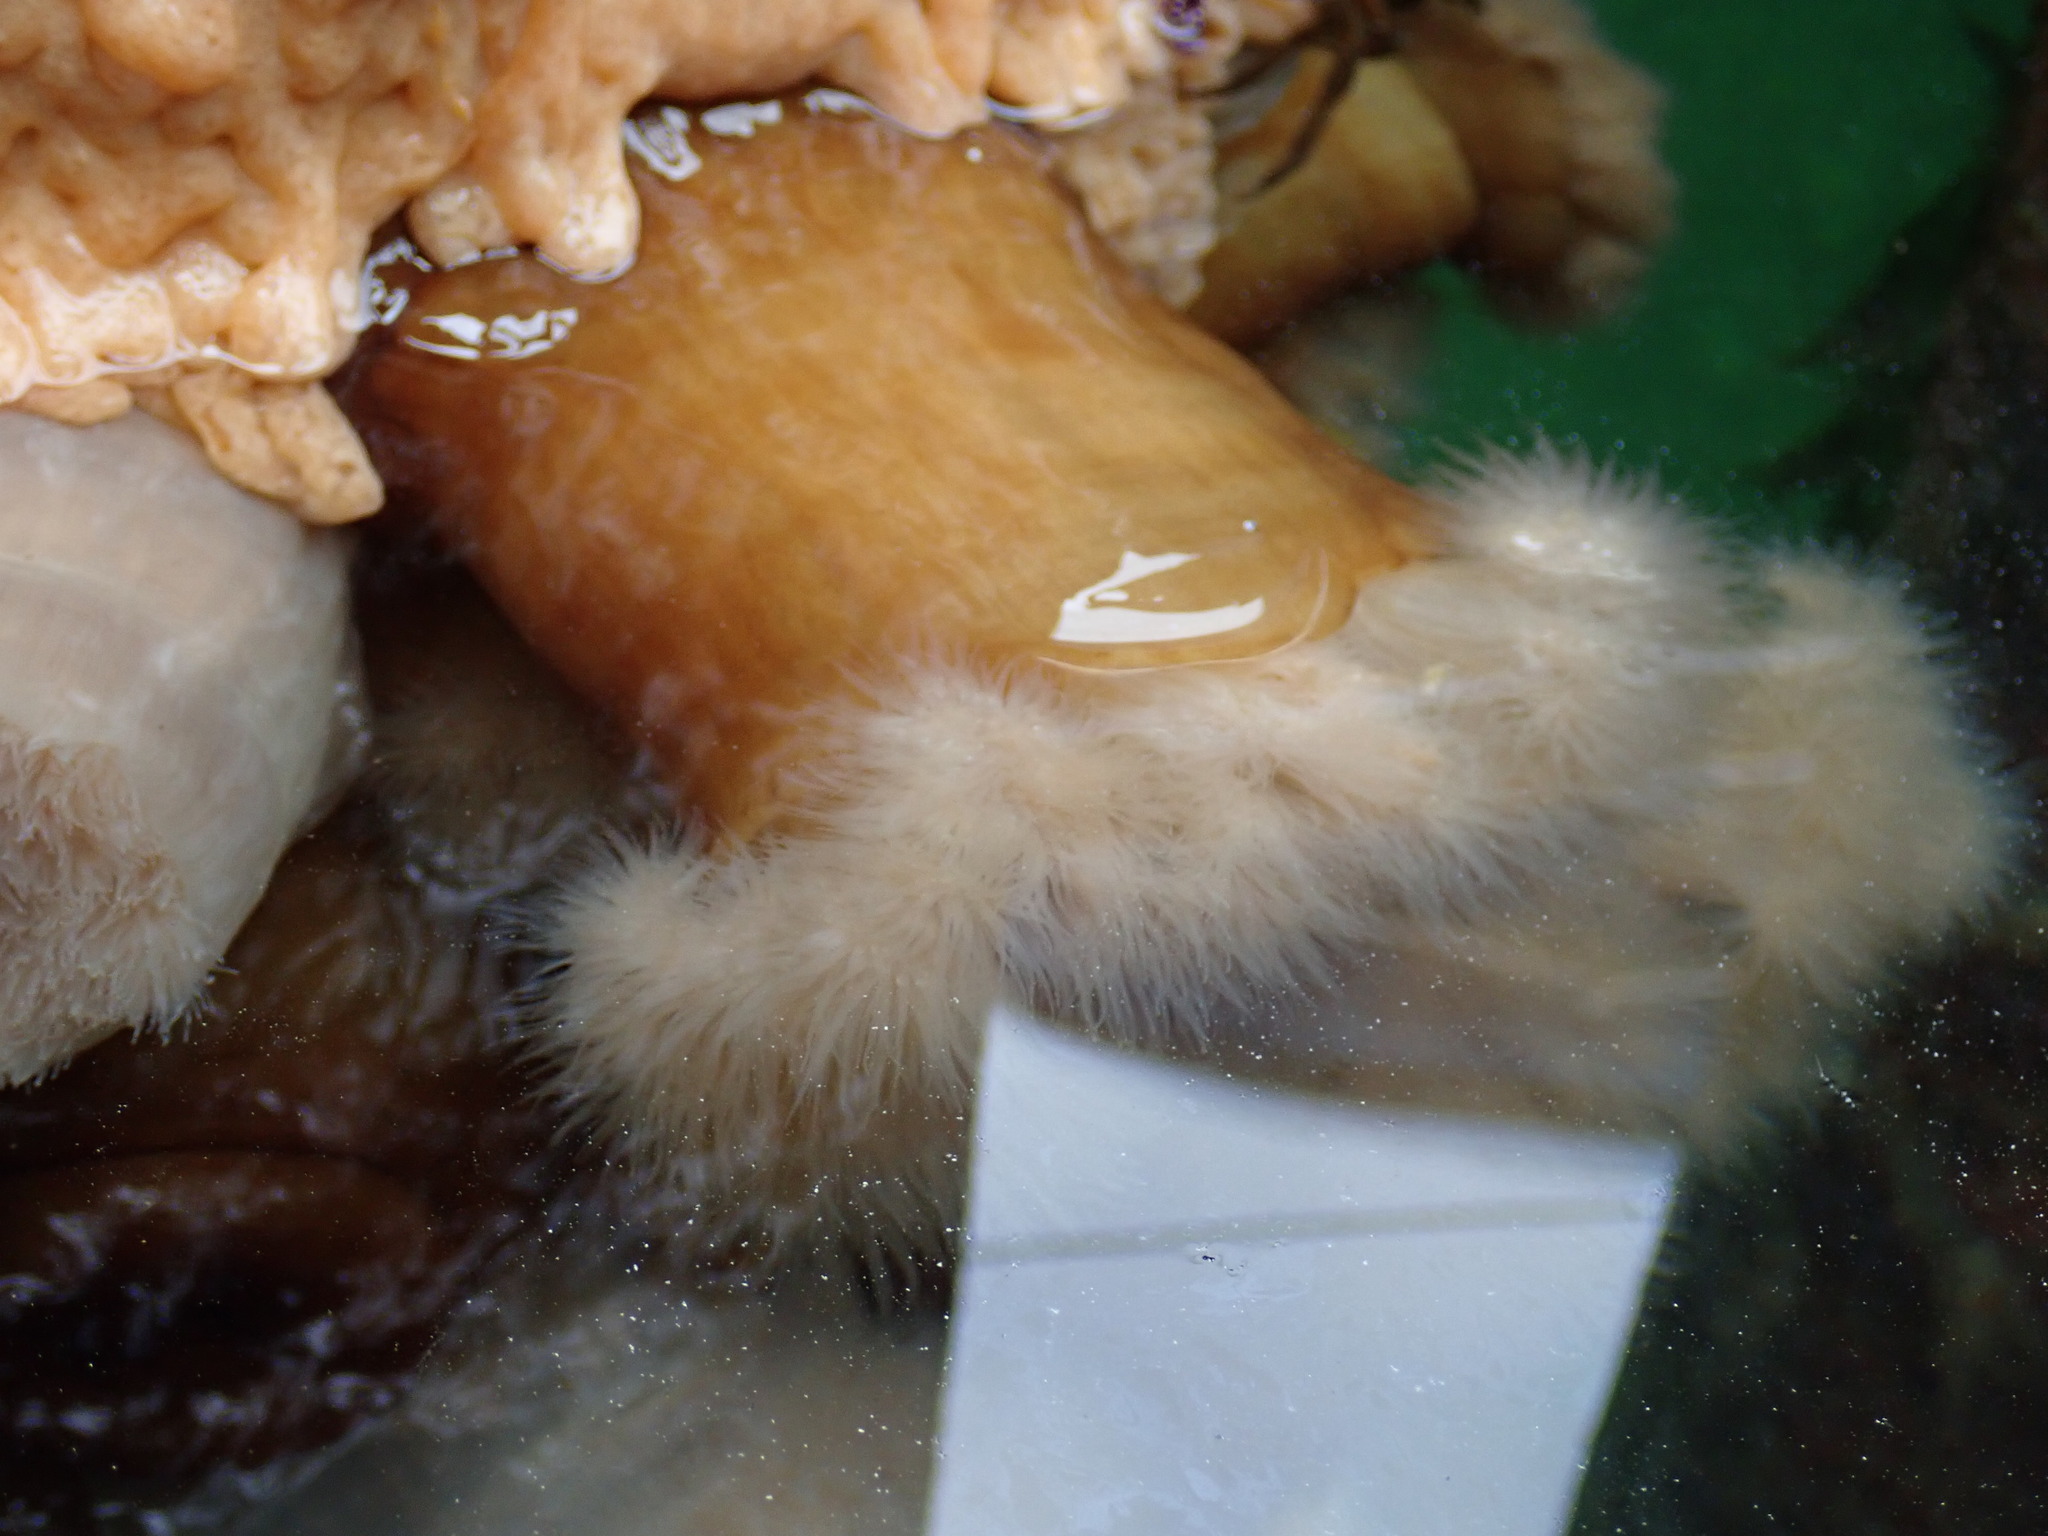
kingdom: Animalia
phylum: Cnidaria
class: Anthozoa
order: Actiniaria
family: Metridiidae
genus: Metridium
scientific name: Metridium senile
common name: Clonal plumose anemone
